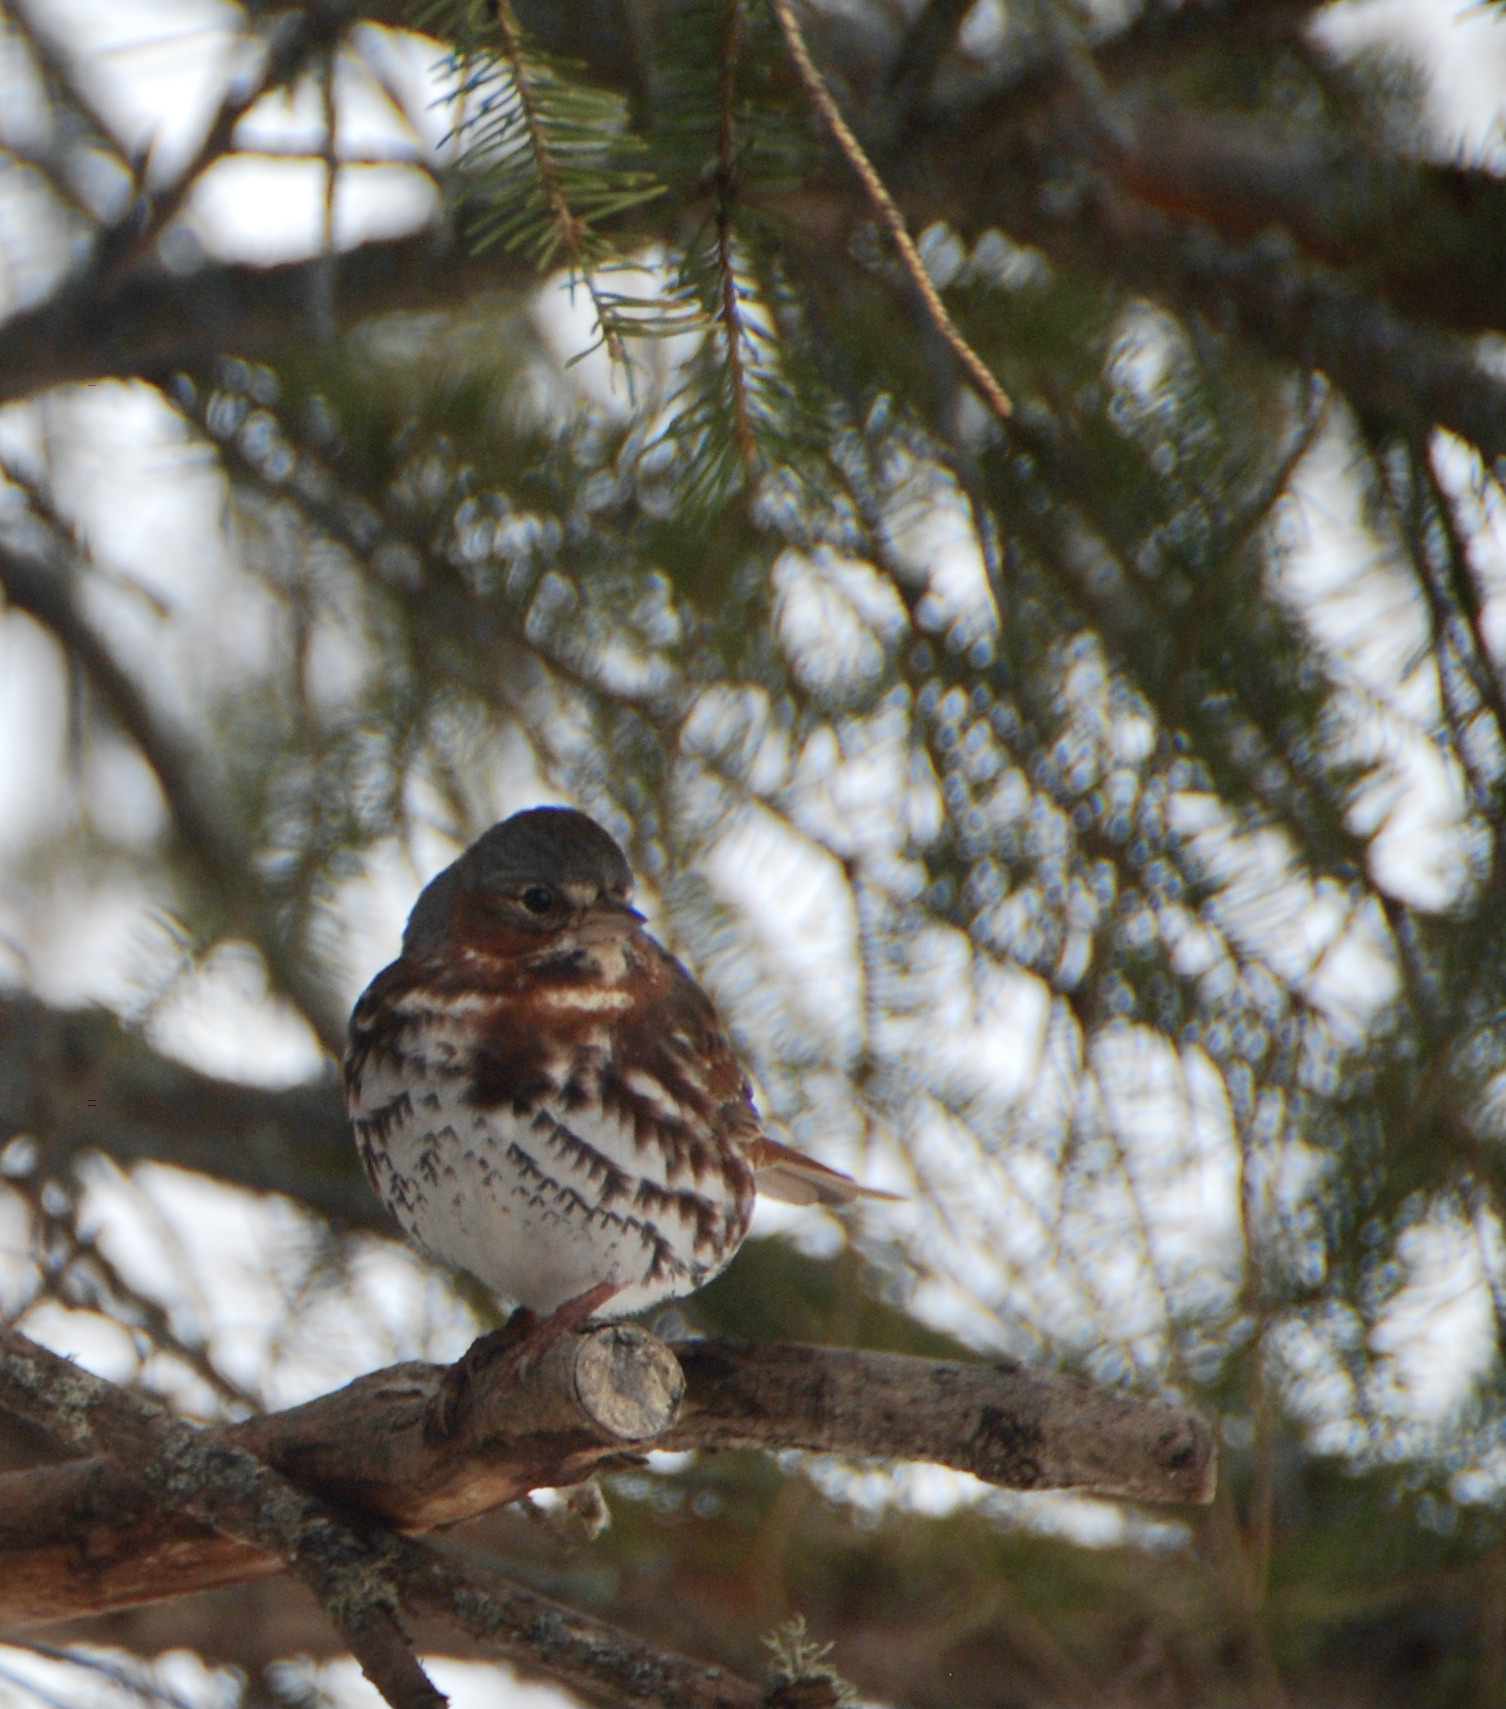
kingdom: Animalia
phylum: Chordata
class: Aves
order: Passeriformes
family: Passerellidae
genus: Passerella
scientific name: Passerella iliaca
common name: Fox sparrow
